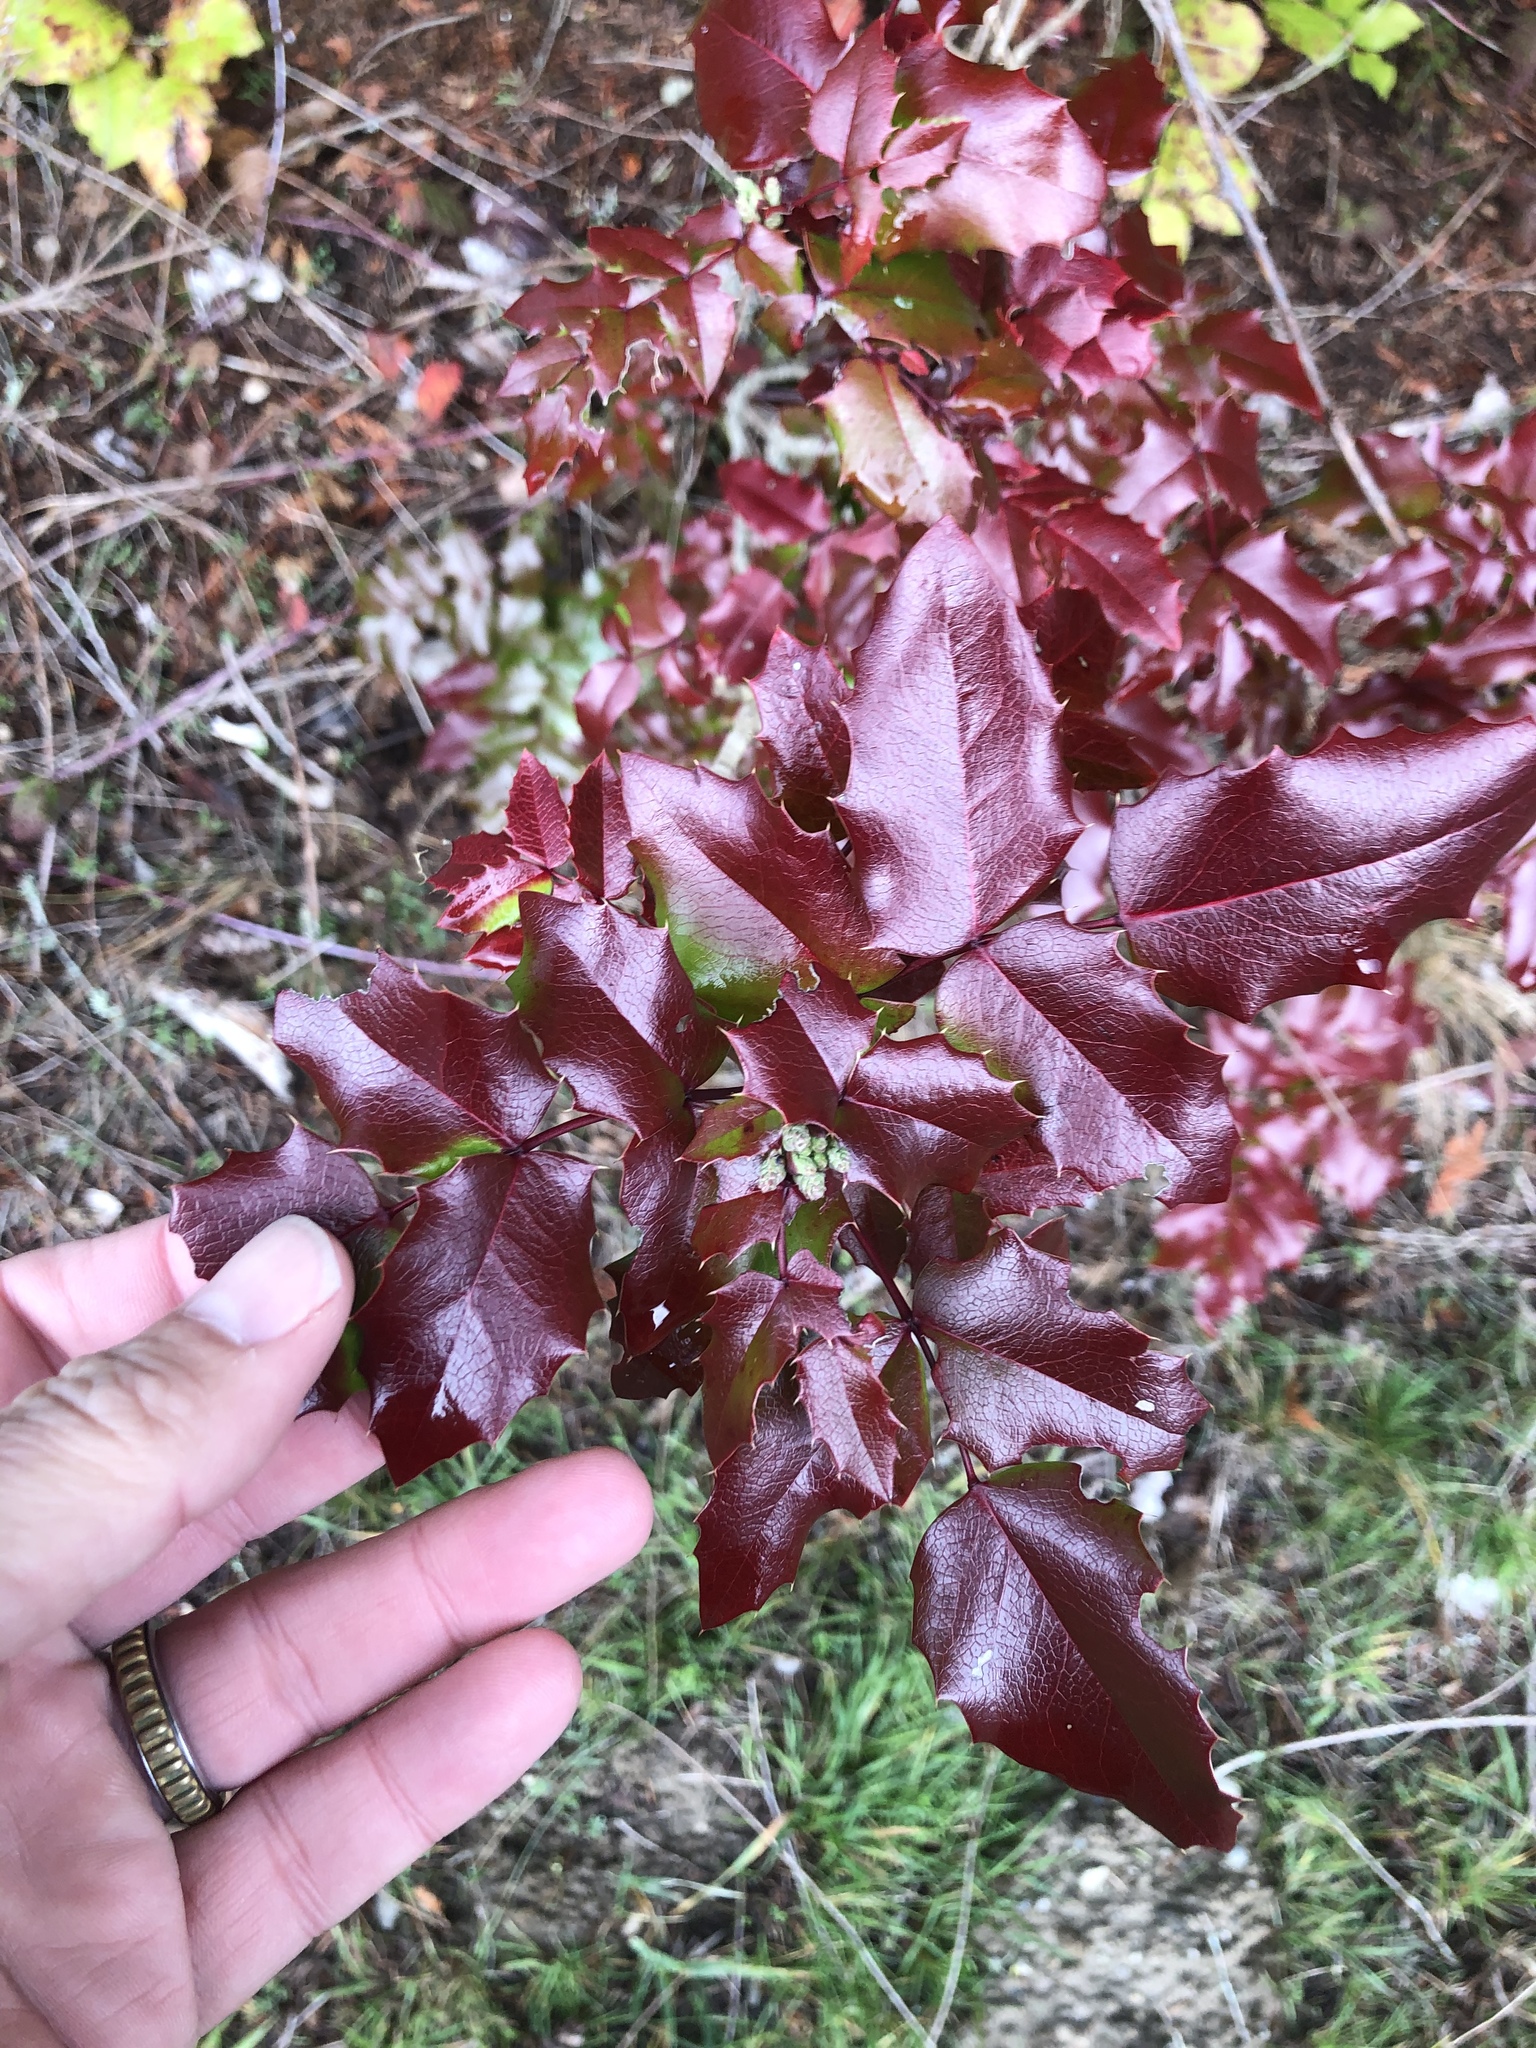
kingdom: Plantae
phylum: Tracheophyta
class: Magnoliopsida
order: Ranunculales
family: Berberidaceae
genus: Mahonia
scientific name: Mahonia aquifolium
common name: Oregon-grape
